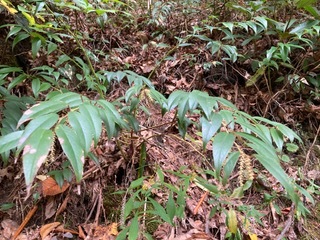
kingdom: Plantae
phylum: Tracheophyta
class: Magnoliopsida
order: Ericales
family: Ericaceae
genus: Leucothoe
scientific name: Leucothoe fontanesiana
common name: Fetterbush
